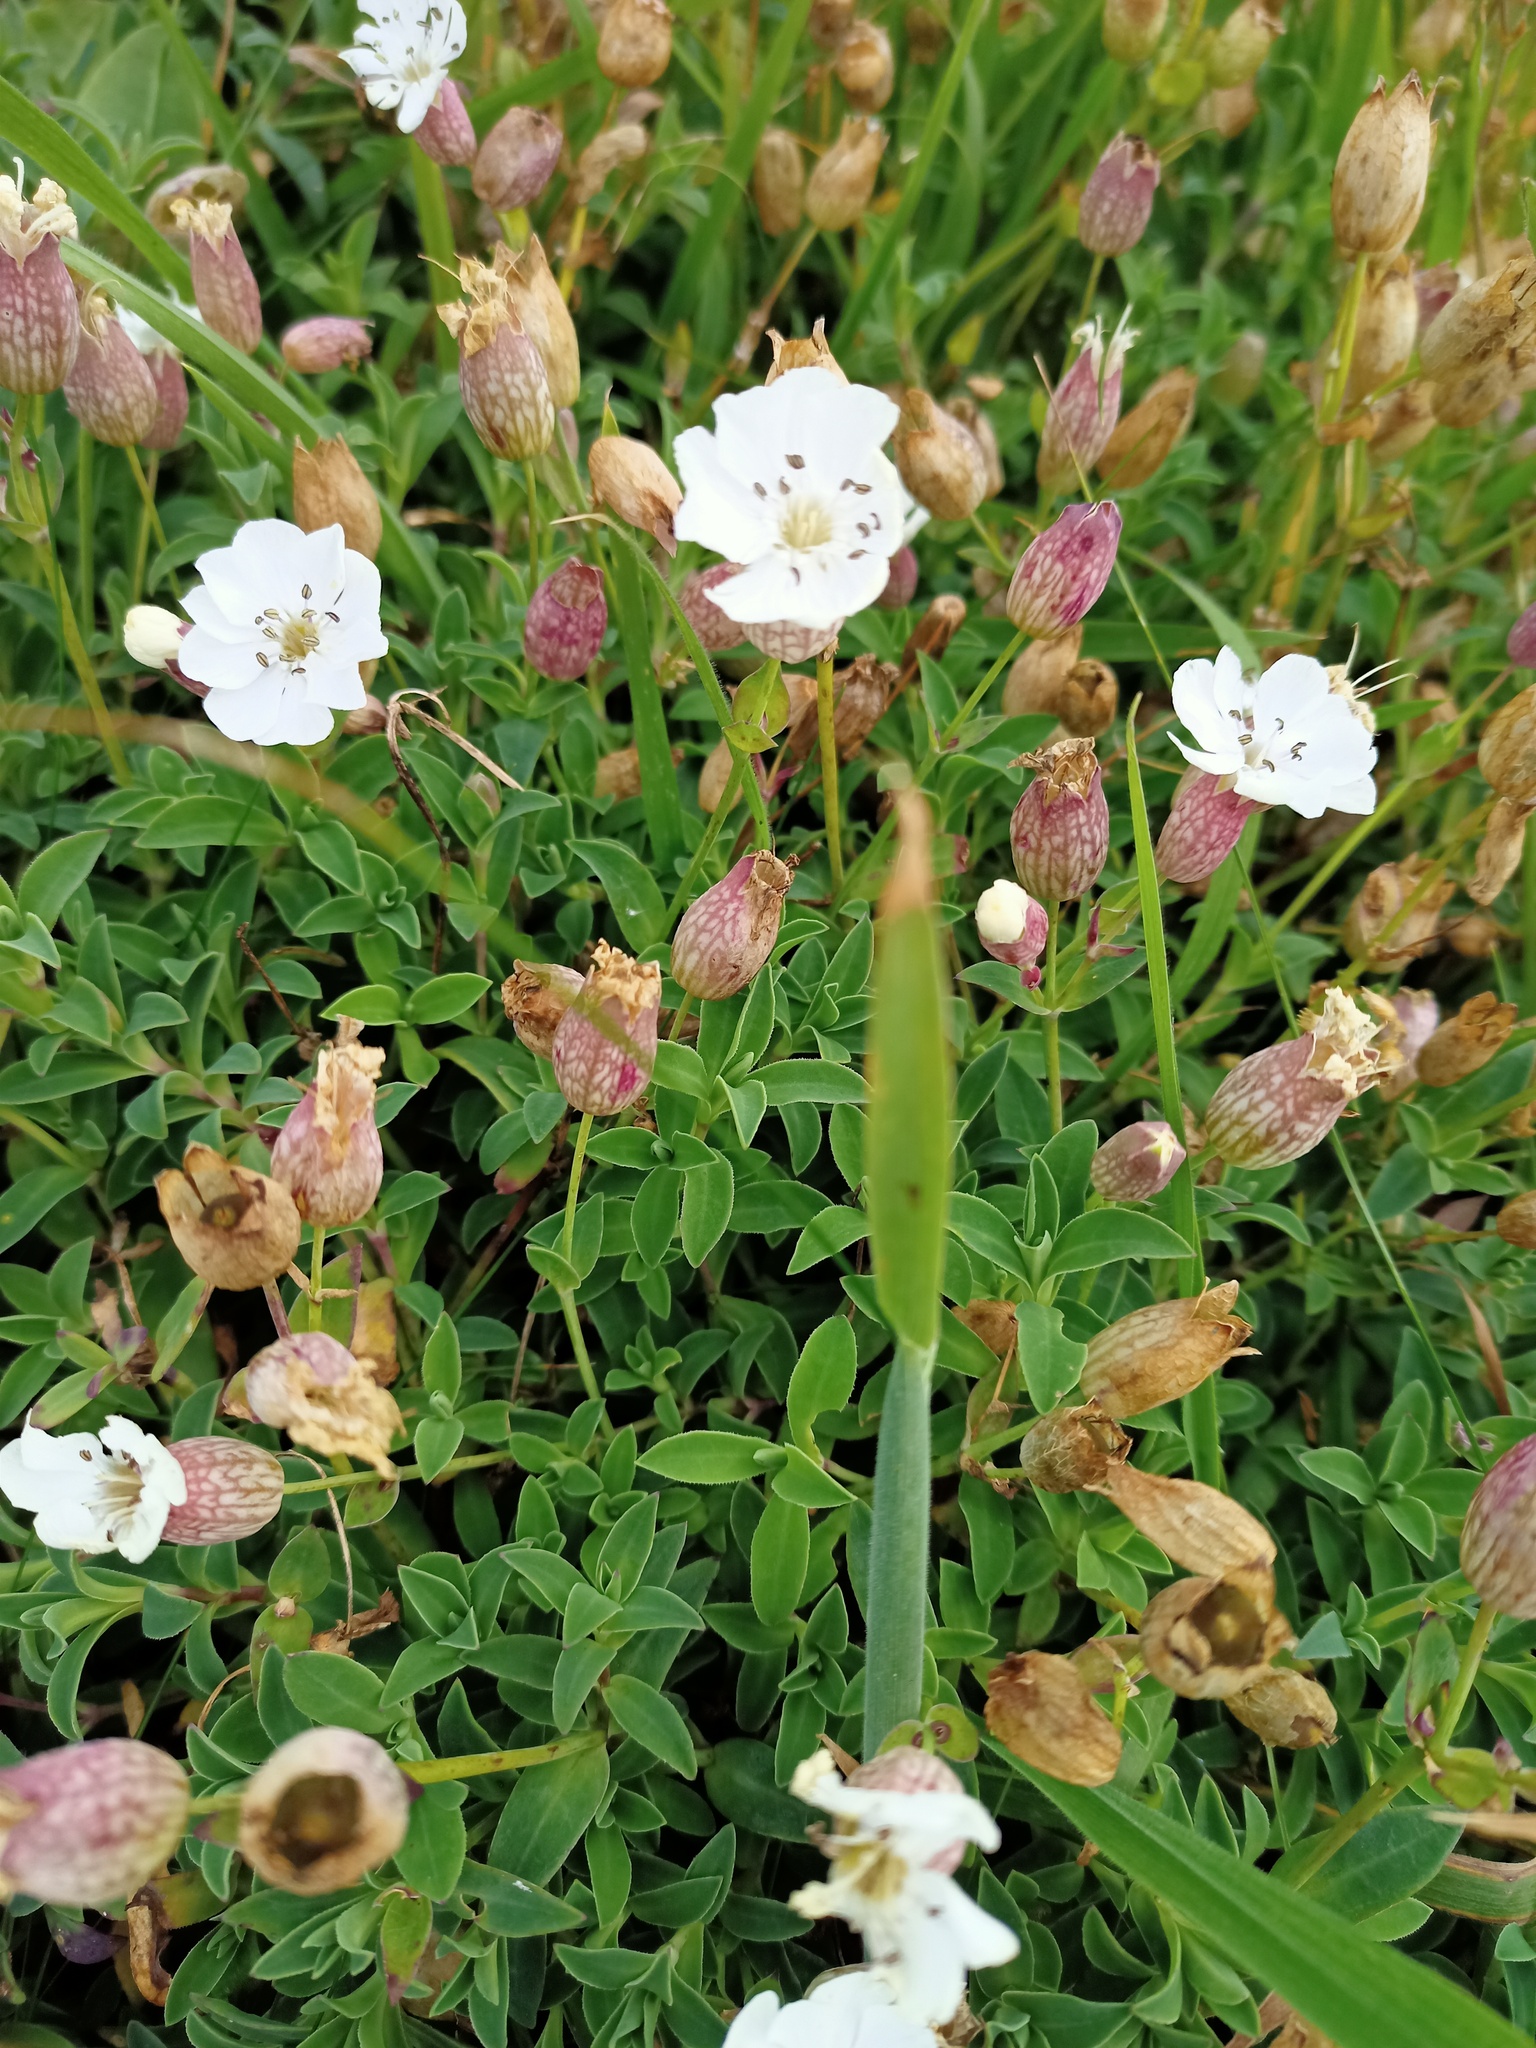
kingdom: Plantae
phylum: Tracheophyta
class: Magnoliopsida
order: Caryophyllales
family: Caryophyllaceae
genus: Silene
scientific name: Silene uniflora
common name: Sea campion
